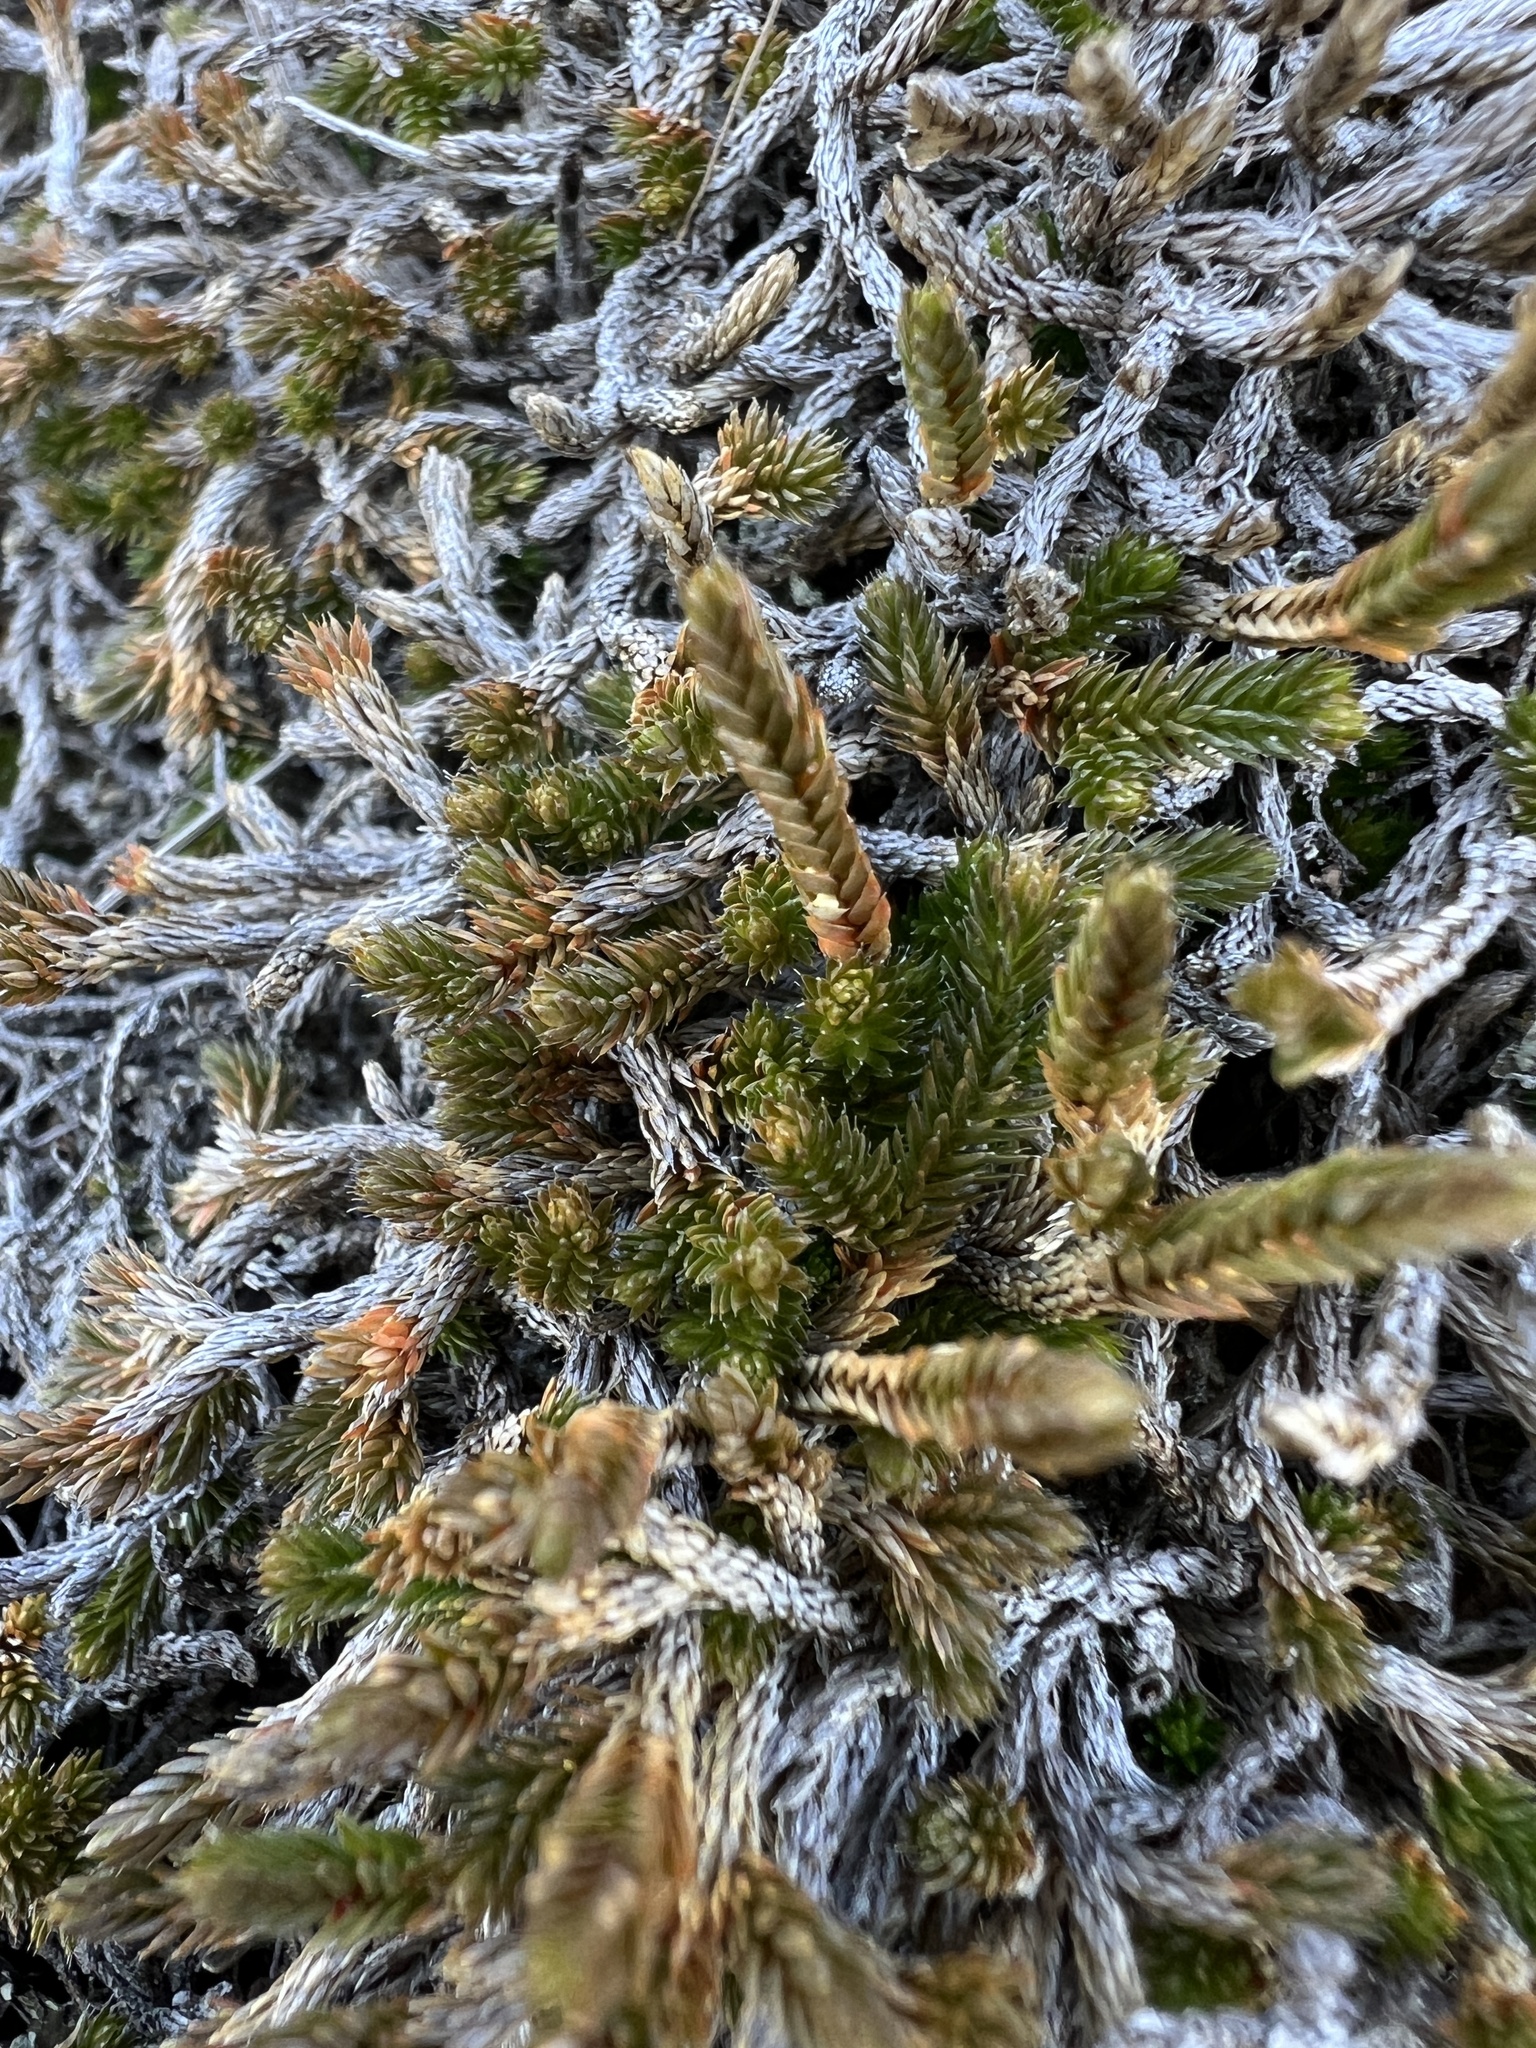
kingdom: Plantae
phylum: Tracheophyta
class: Lycopodiopsida
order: Selaginellales
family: Selaginellaceae
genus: Selaginella
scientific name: Selaginella wallacei
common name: Wallace's selaginella
